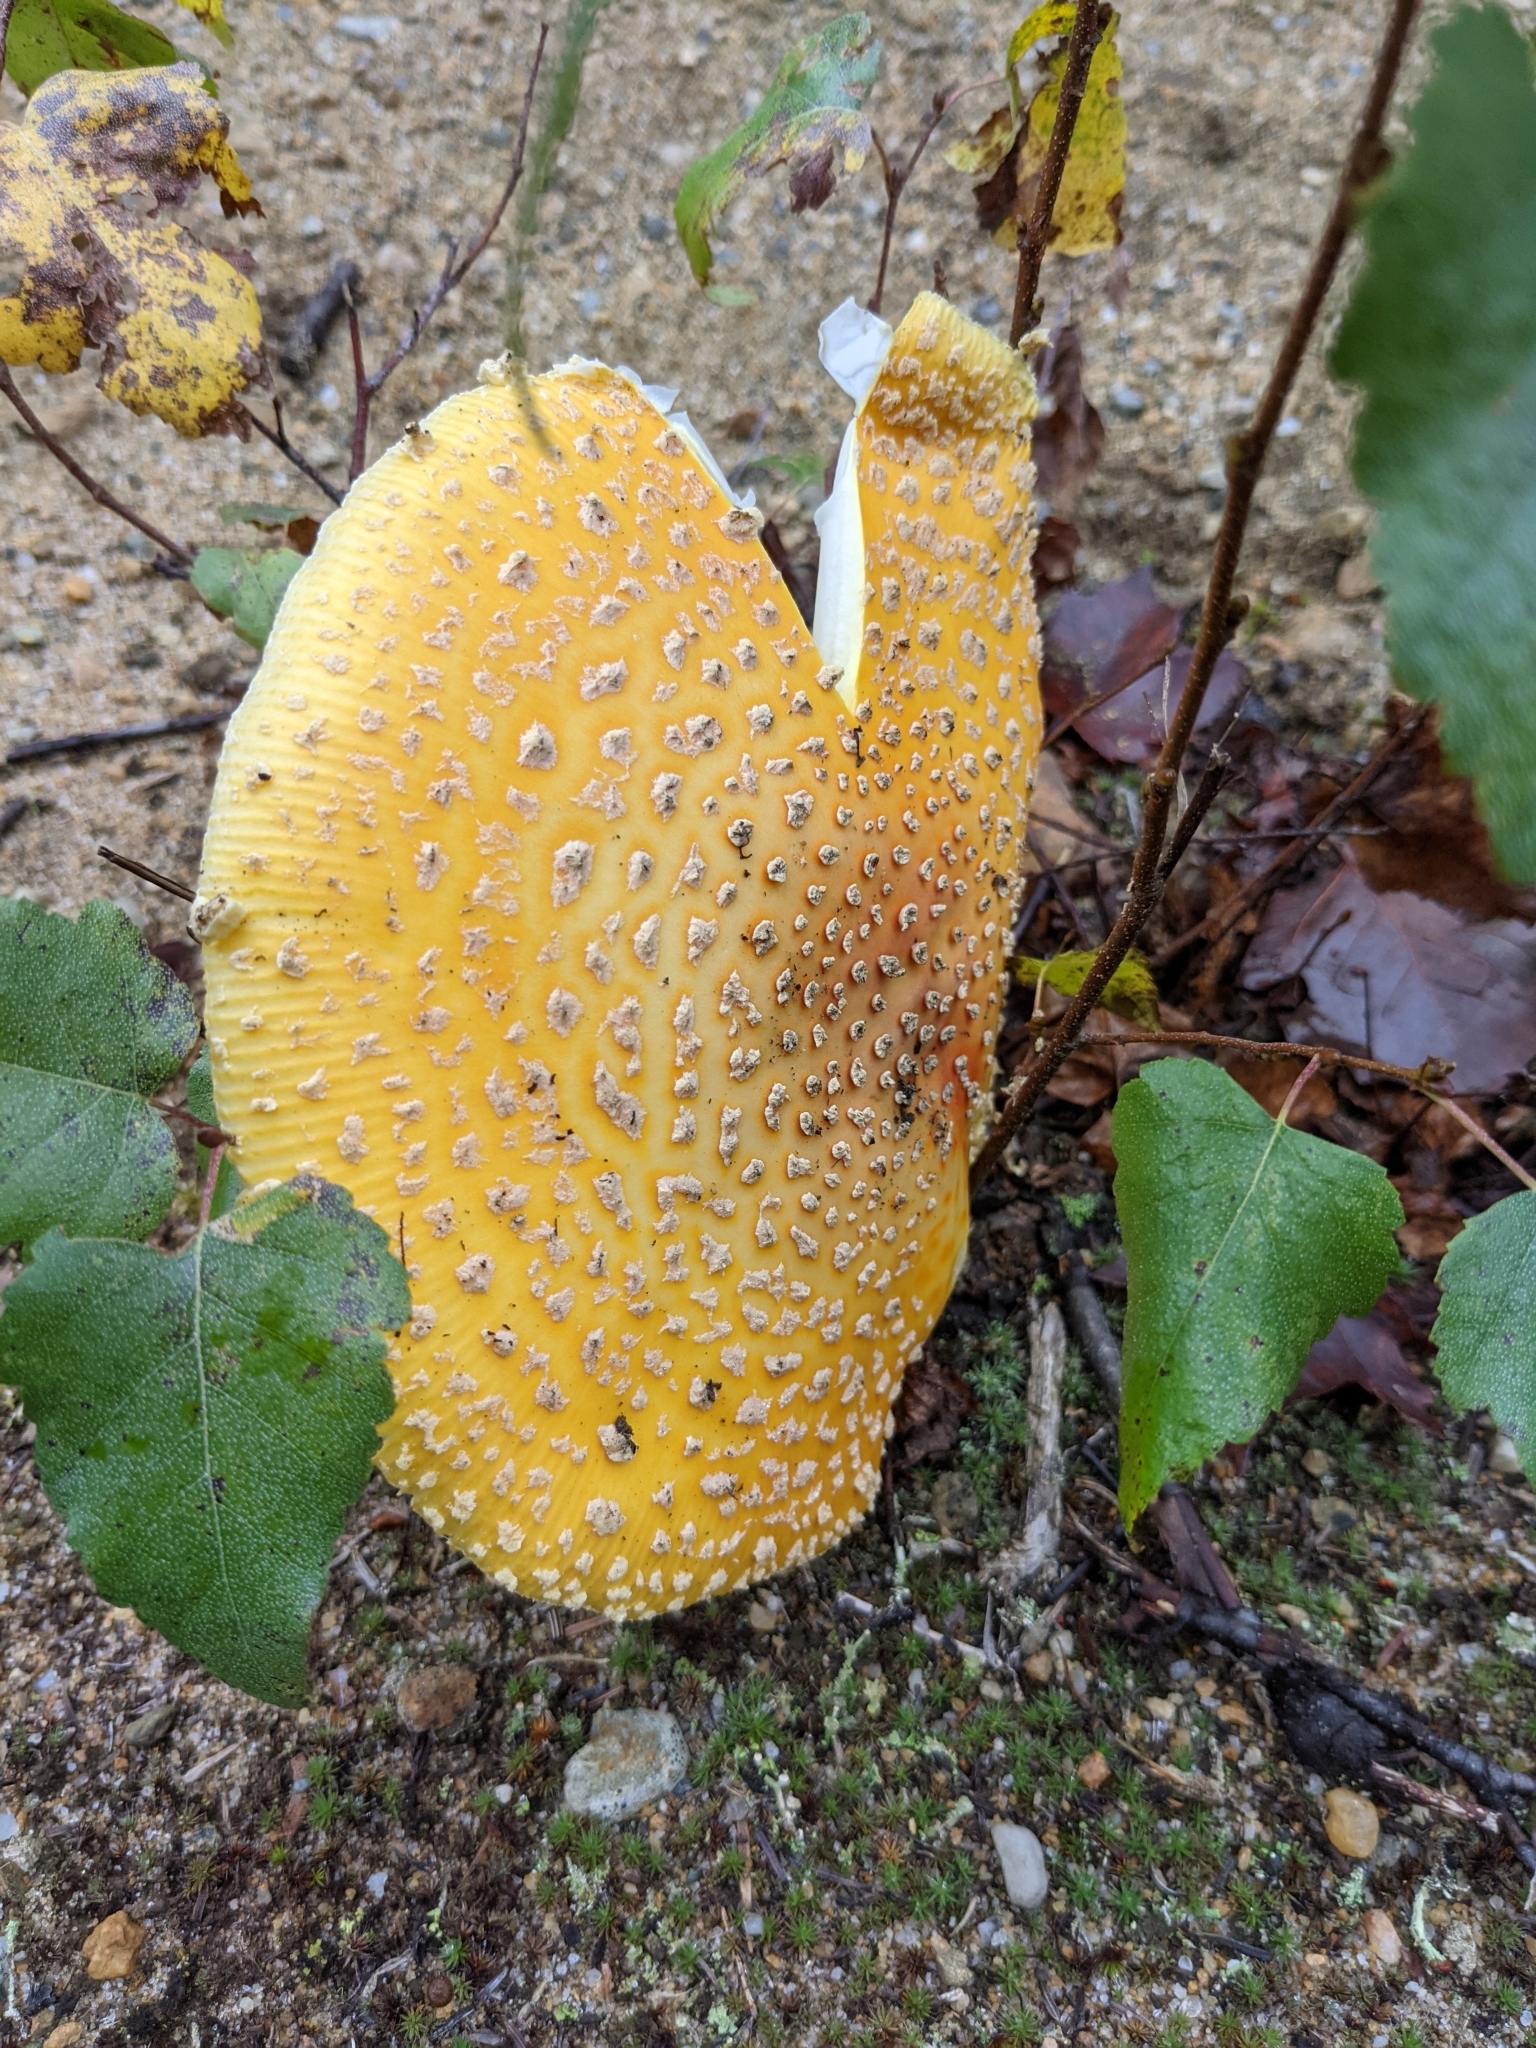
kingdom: Fungi
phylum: Basidiomycota
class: Agaricomycetes
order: Agaricales
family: Amanitaceae
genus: Amanita
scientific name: Amanita muscaria
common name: Fly agaric
